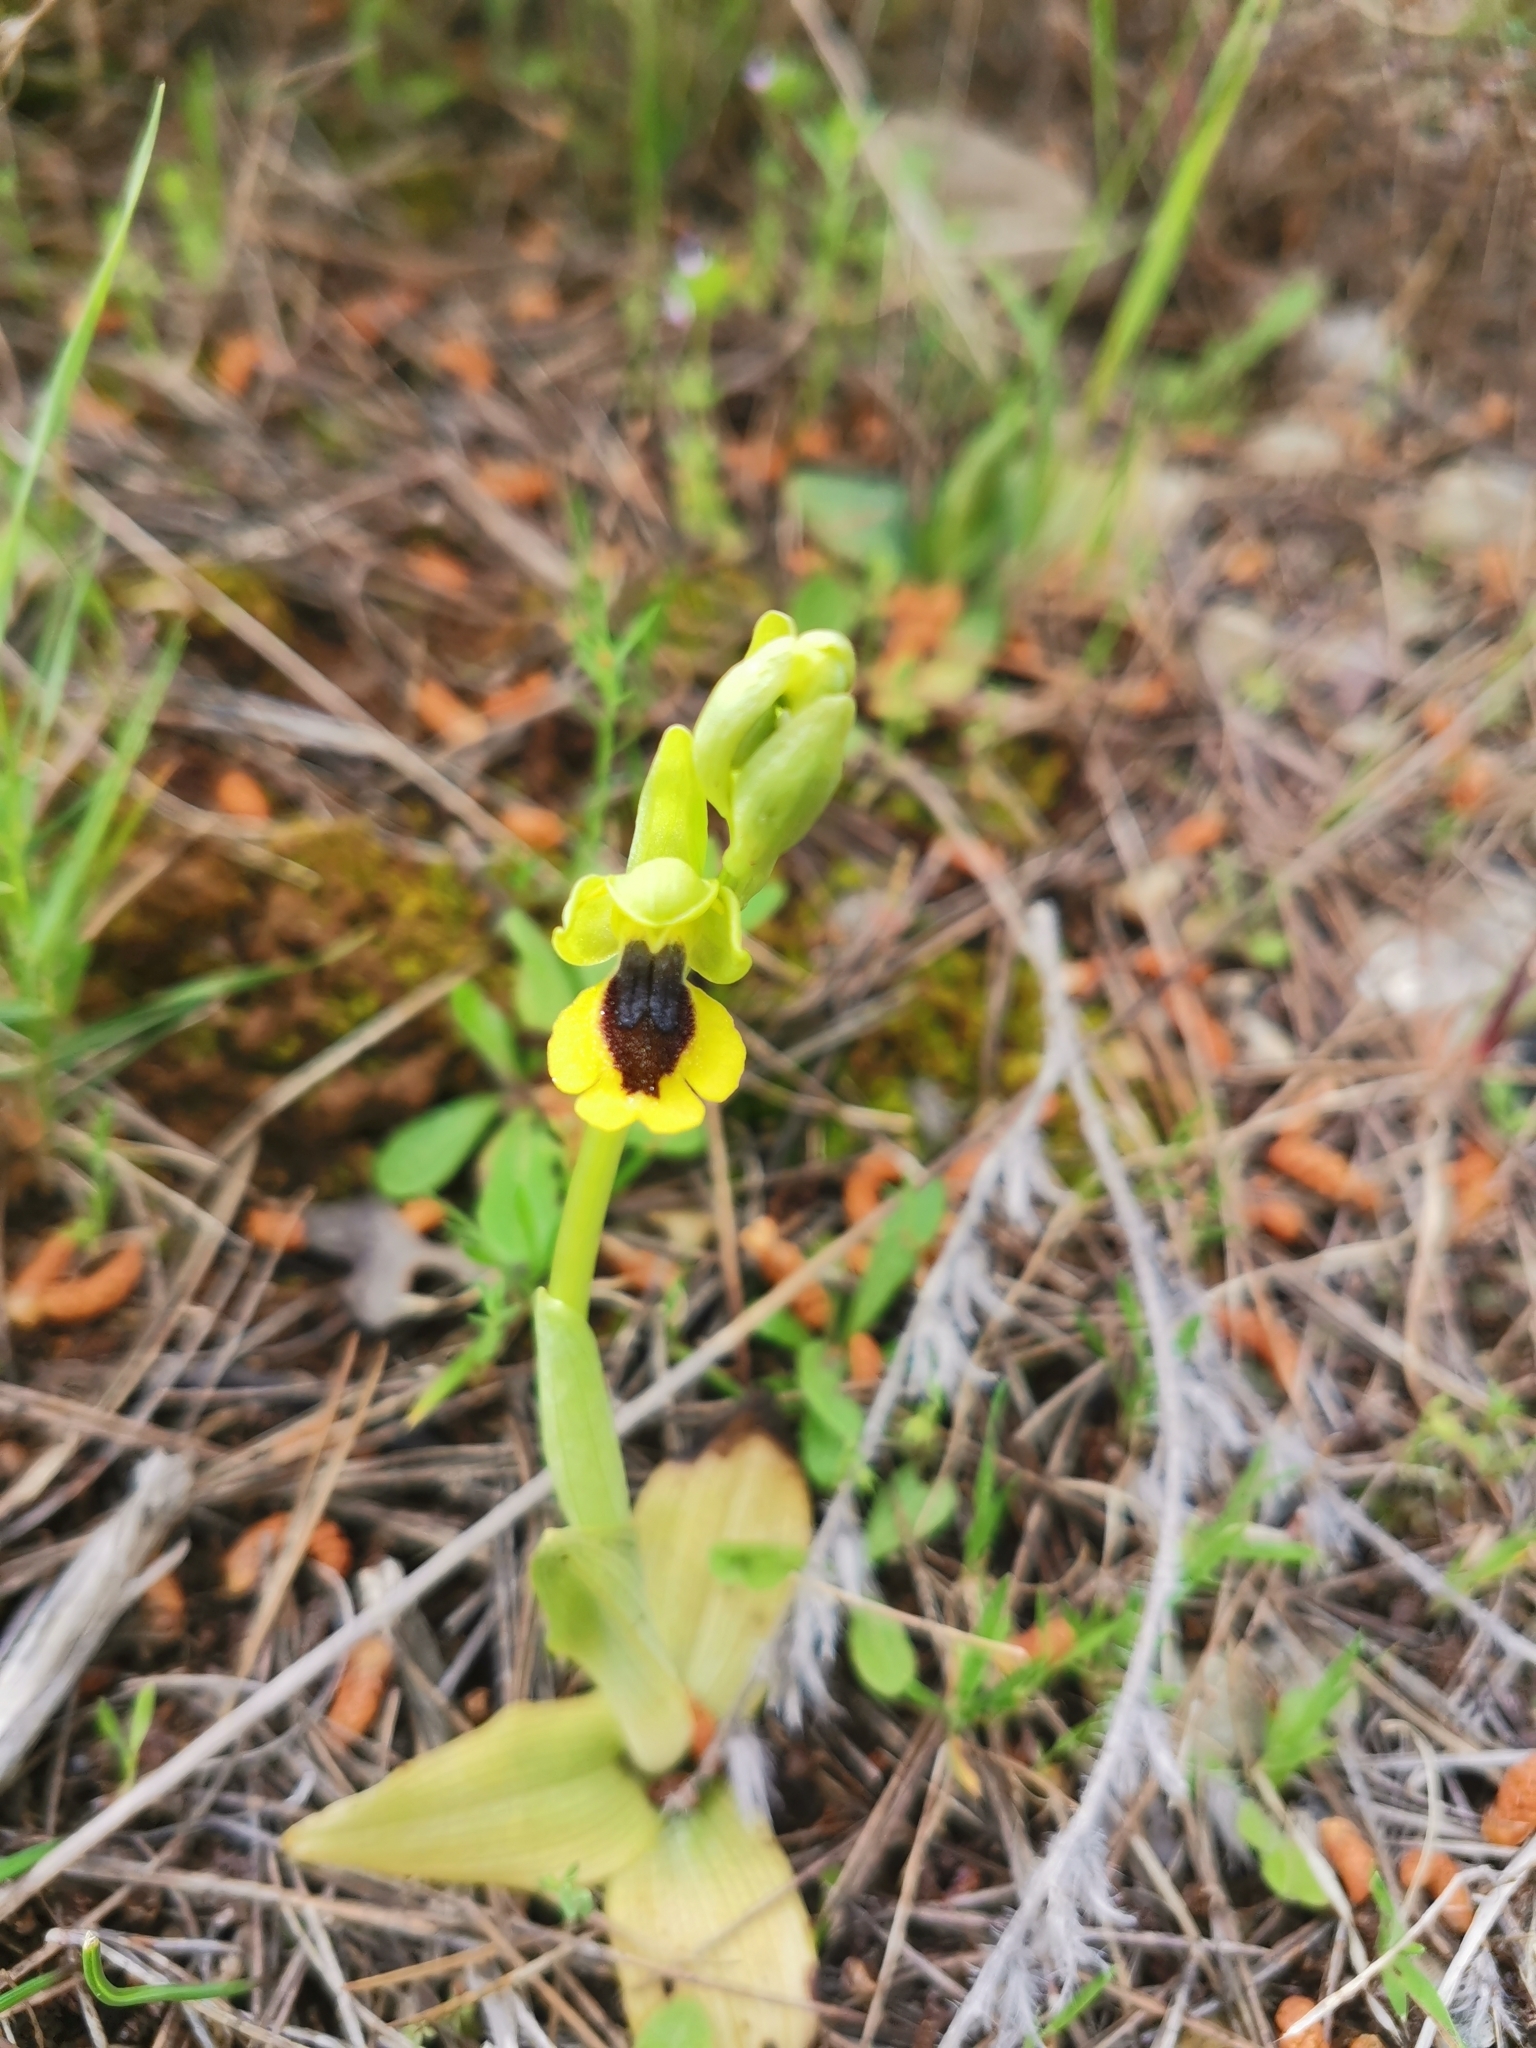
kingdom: Plantae
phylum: Tracheophyta
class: Liliopsida
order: Asparagales
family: Orchidaceae
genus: Ophrys
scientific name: Ophrys lutea
